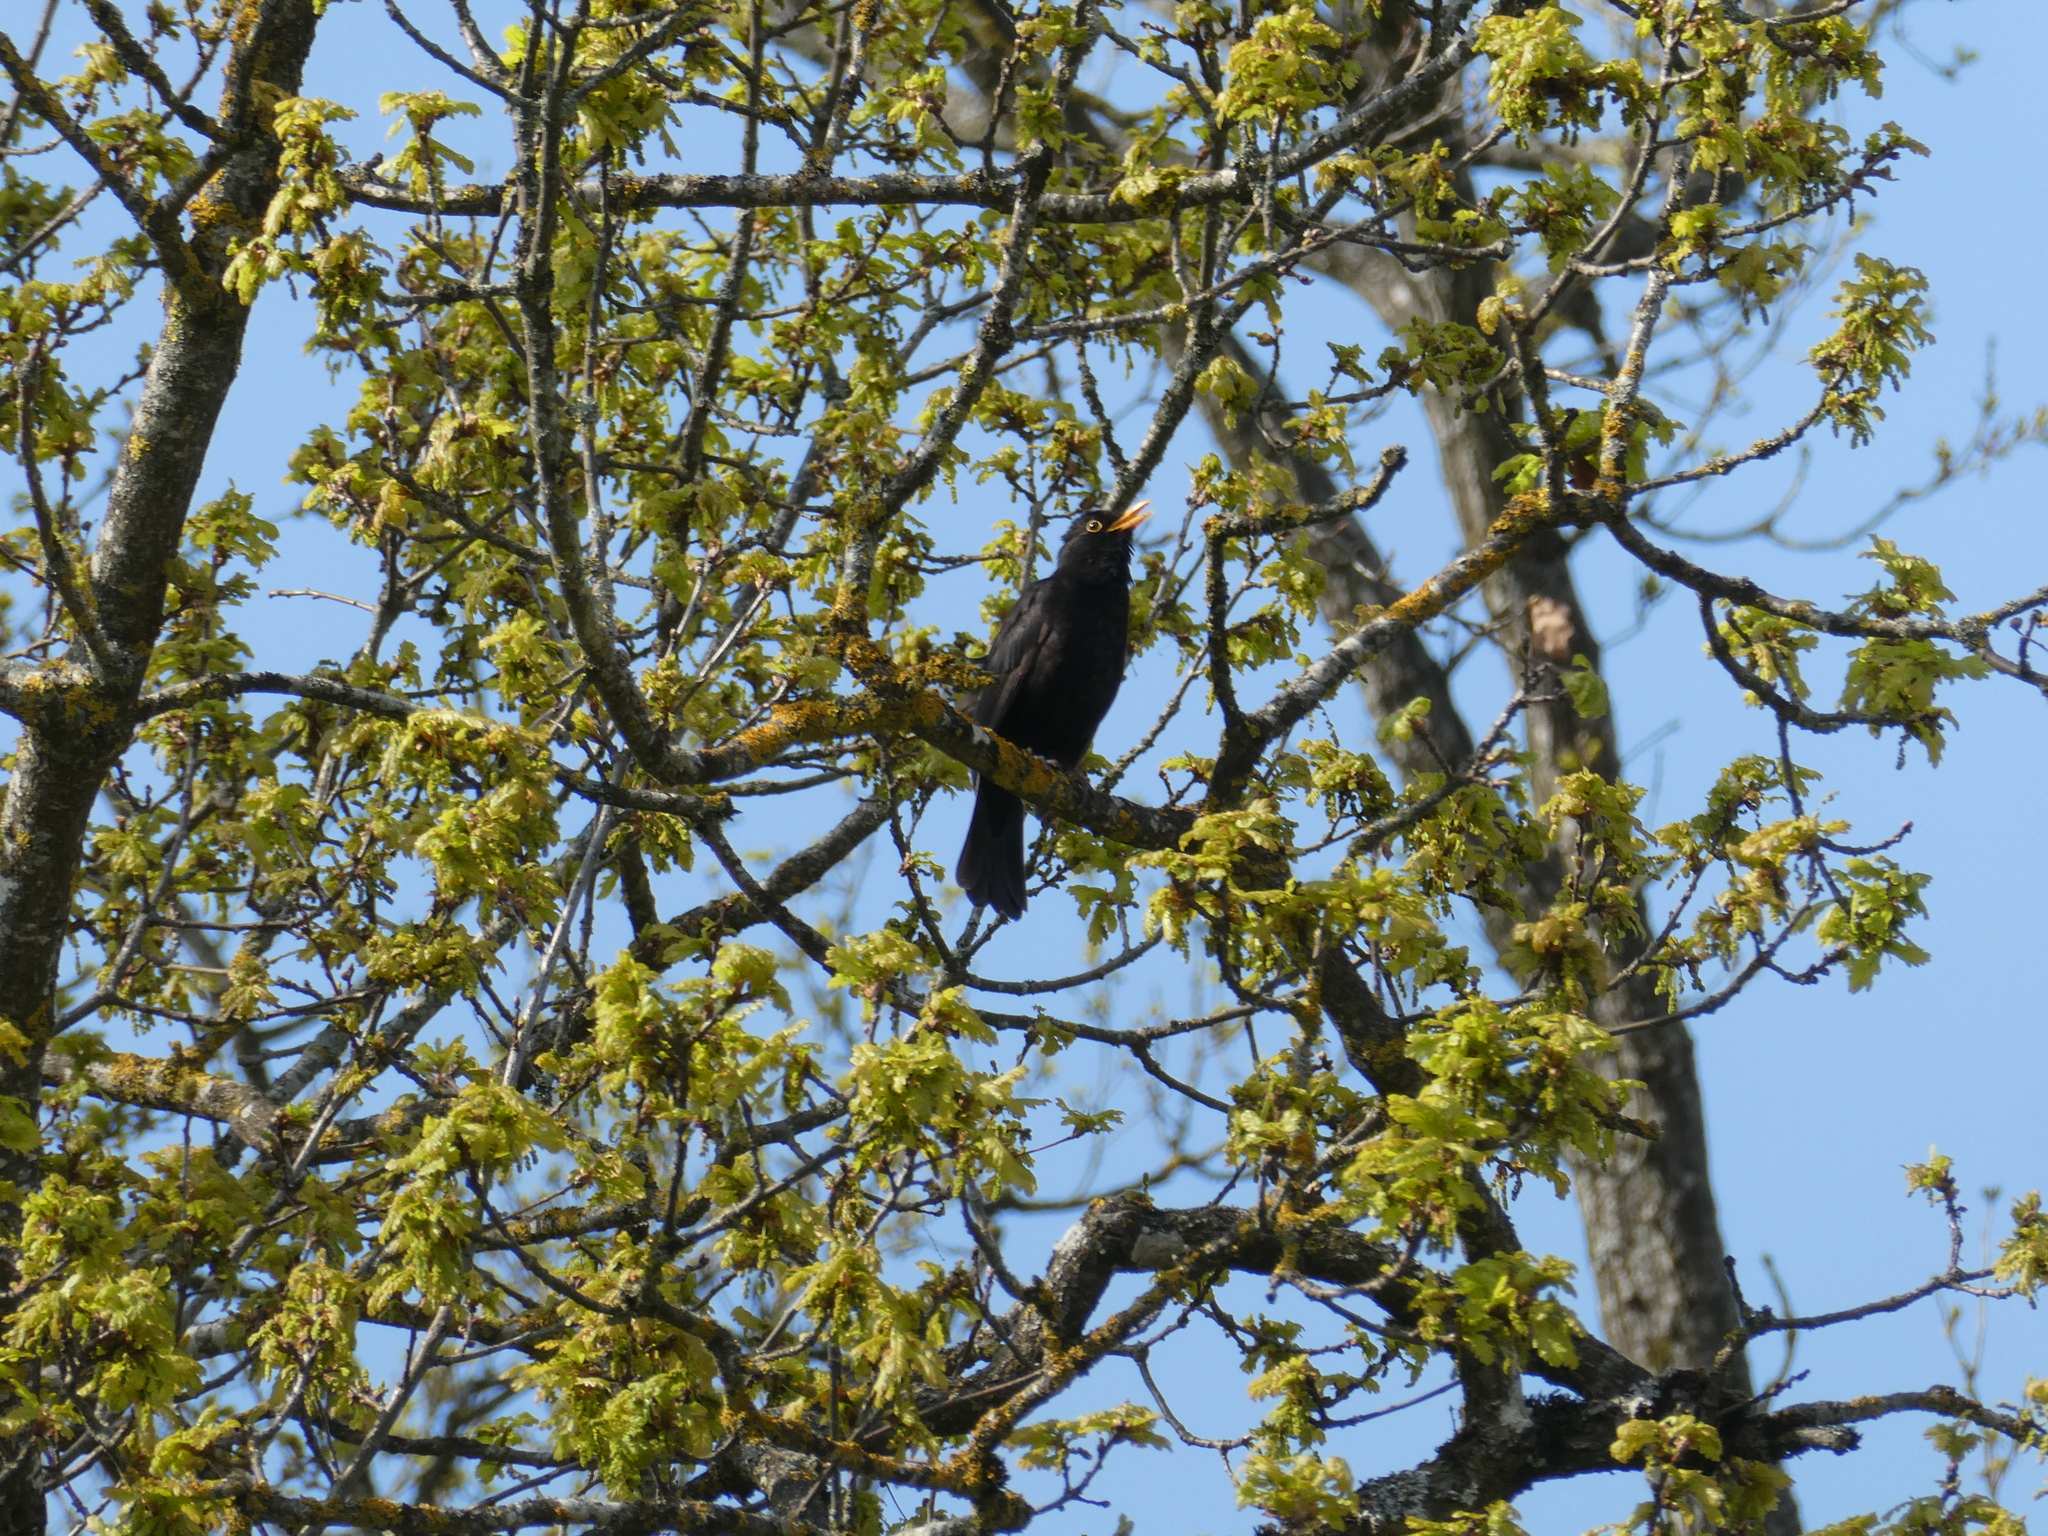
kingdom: Animalia
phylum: Chordata
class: Aves
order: Passeriformes
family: Turdidae
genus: Turdus
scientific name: Turdus merula
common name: Common blackbird
